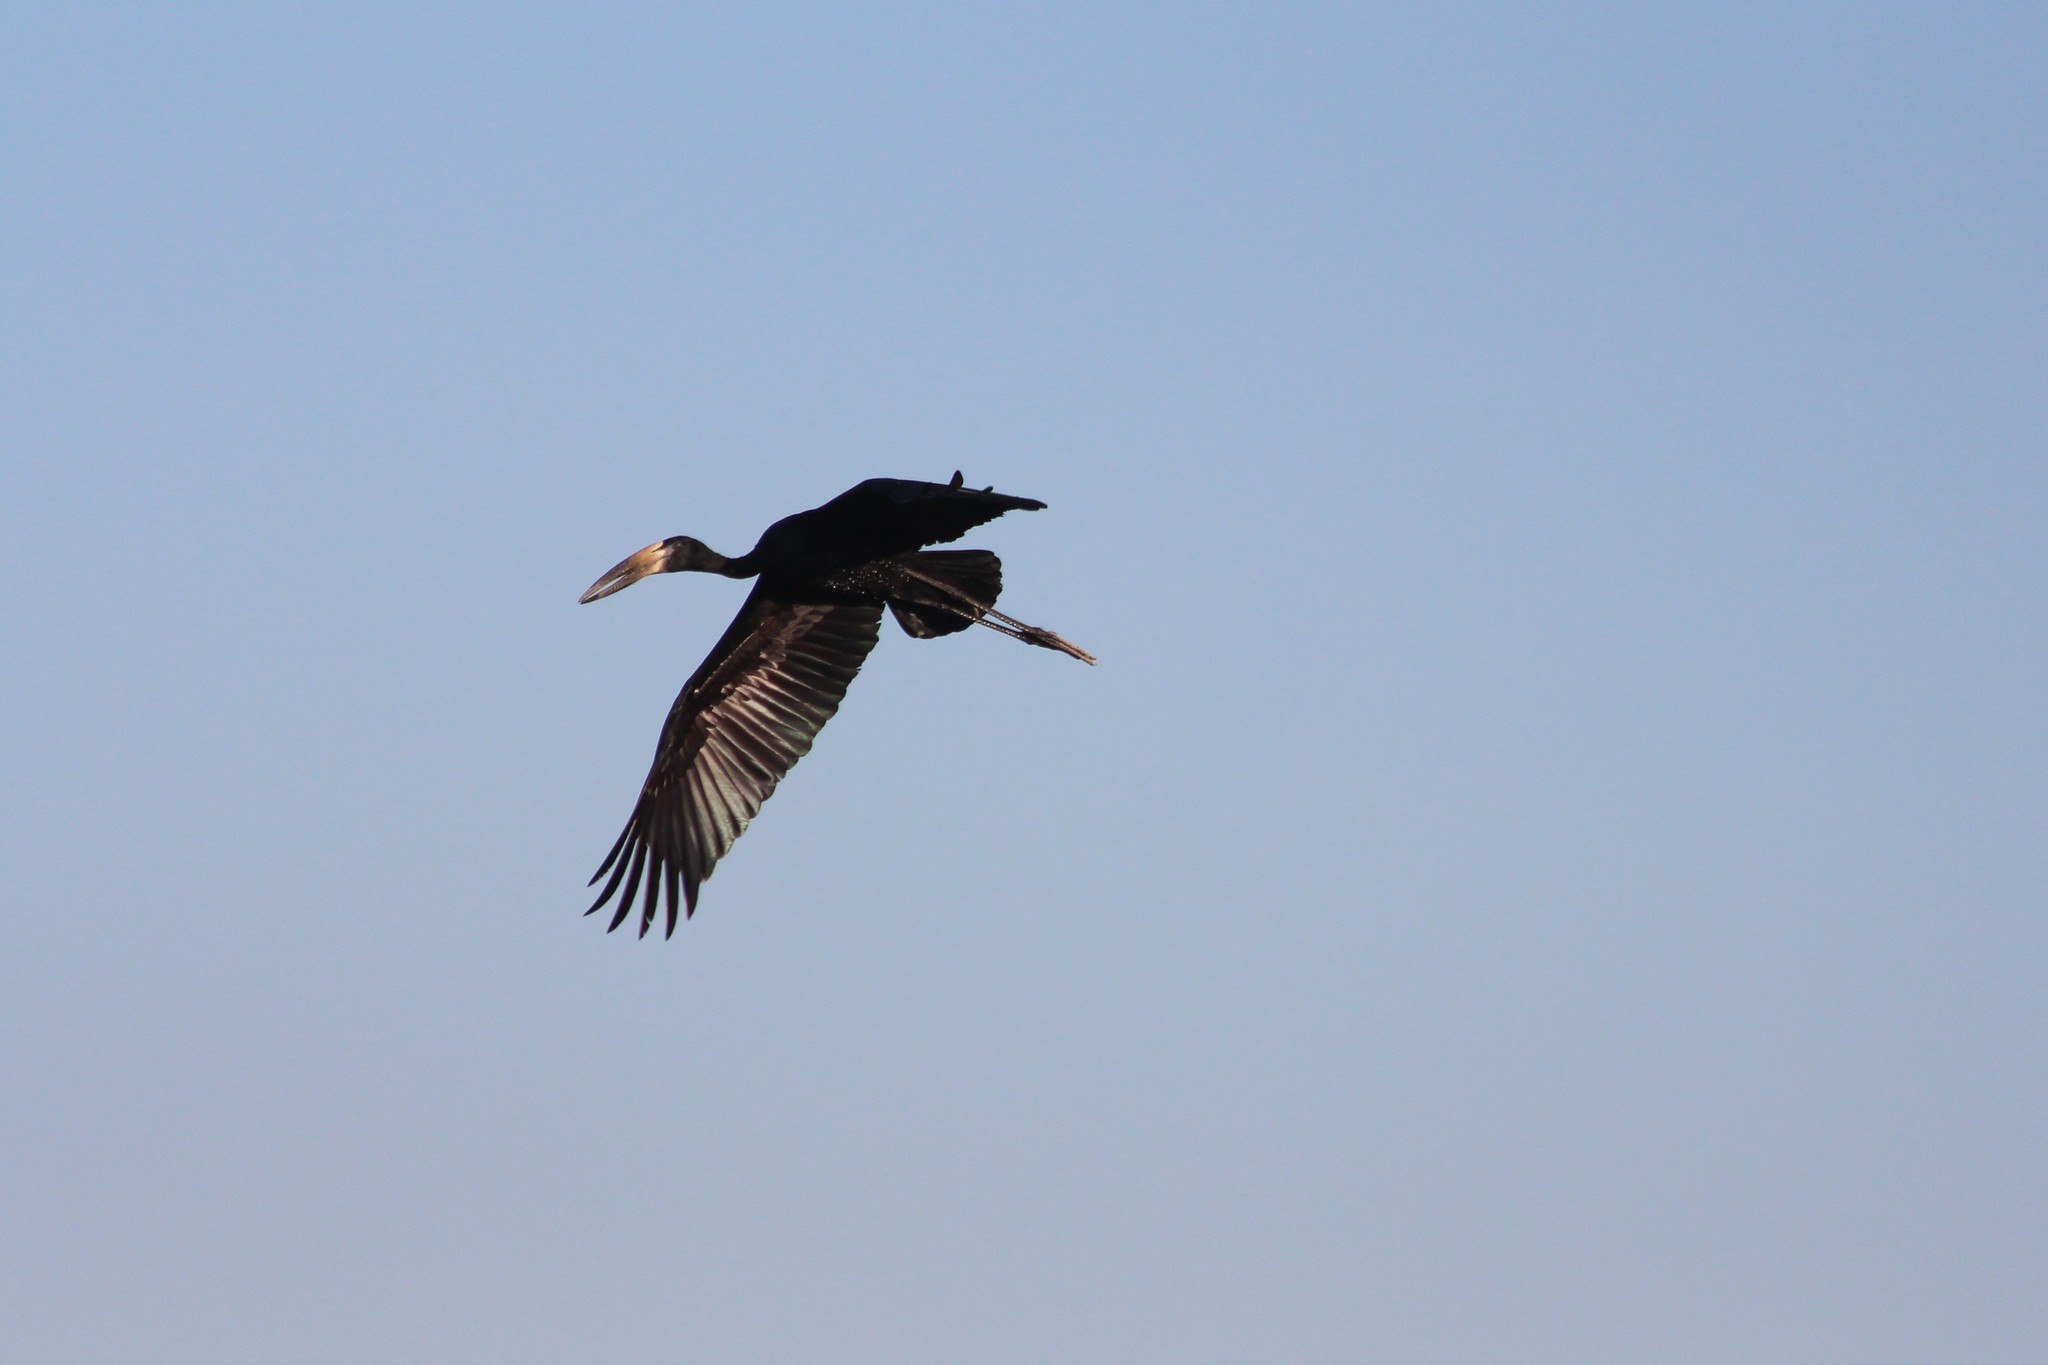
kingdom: Animalia
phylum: Chordata
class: Aves
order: Ciconiiformes
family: Ciconiidae
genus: Anastomus
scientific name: Anastomus lamelligerus
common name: African openbill
